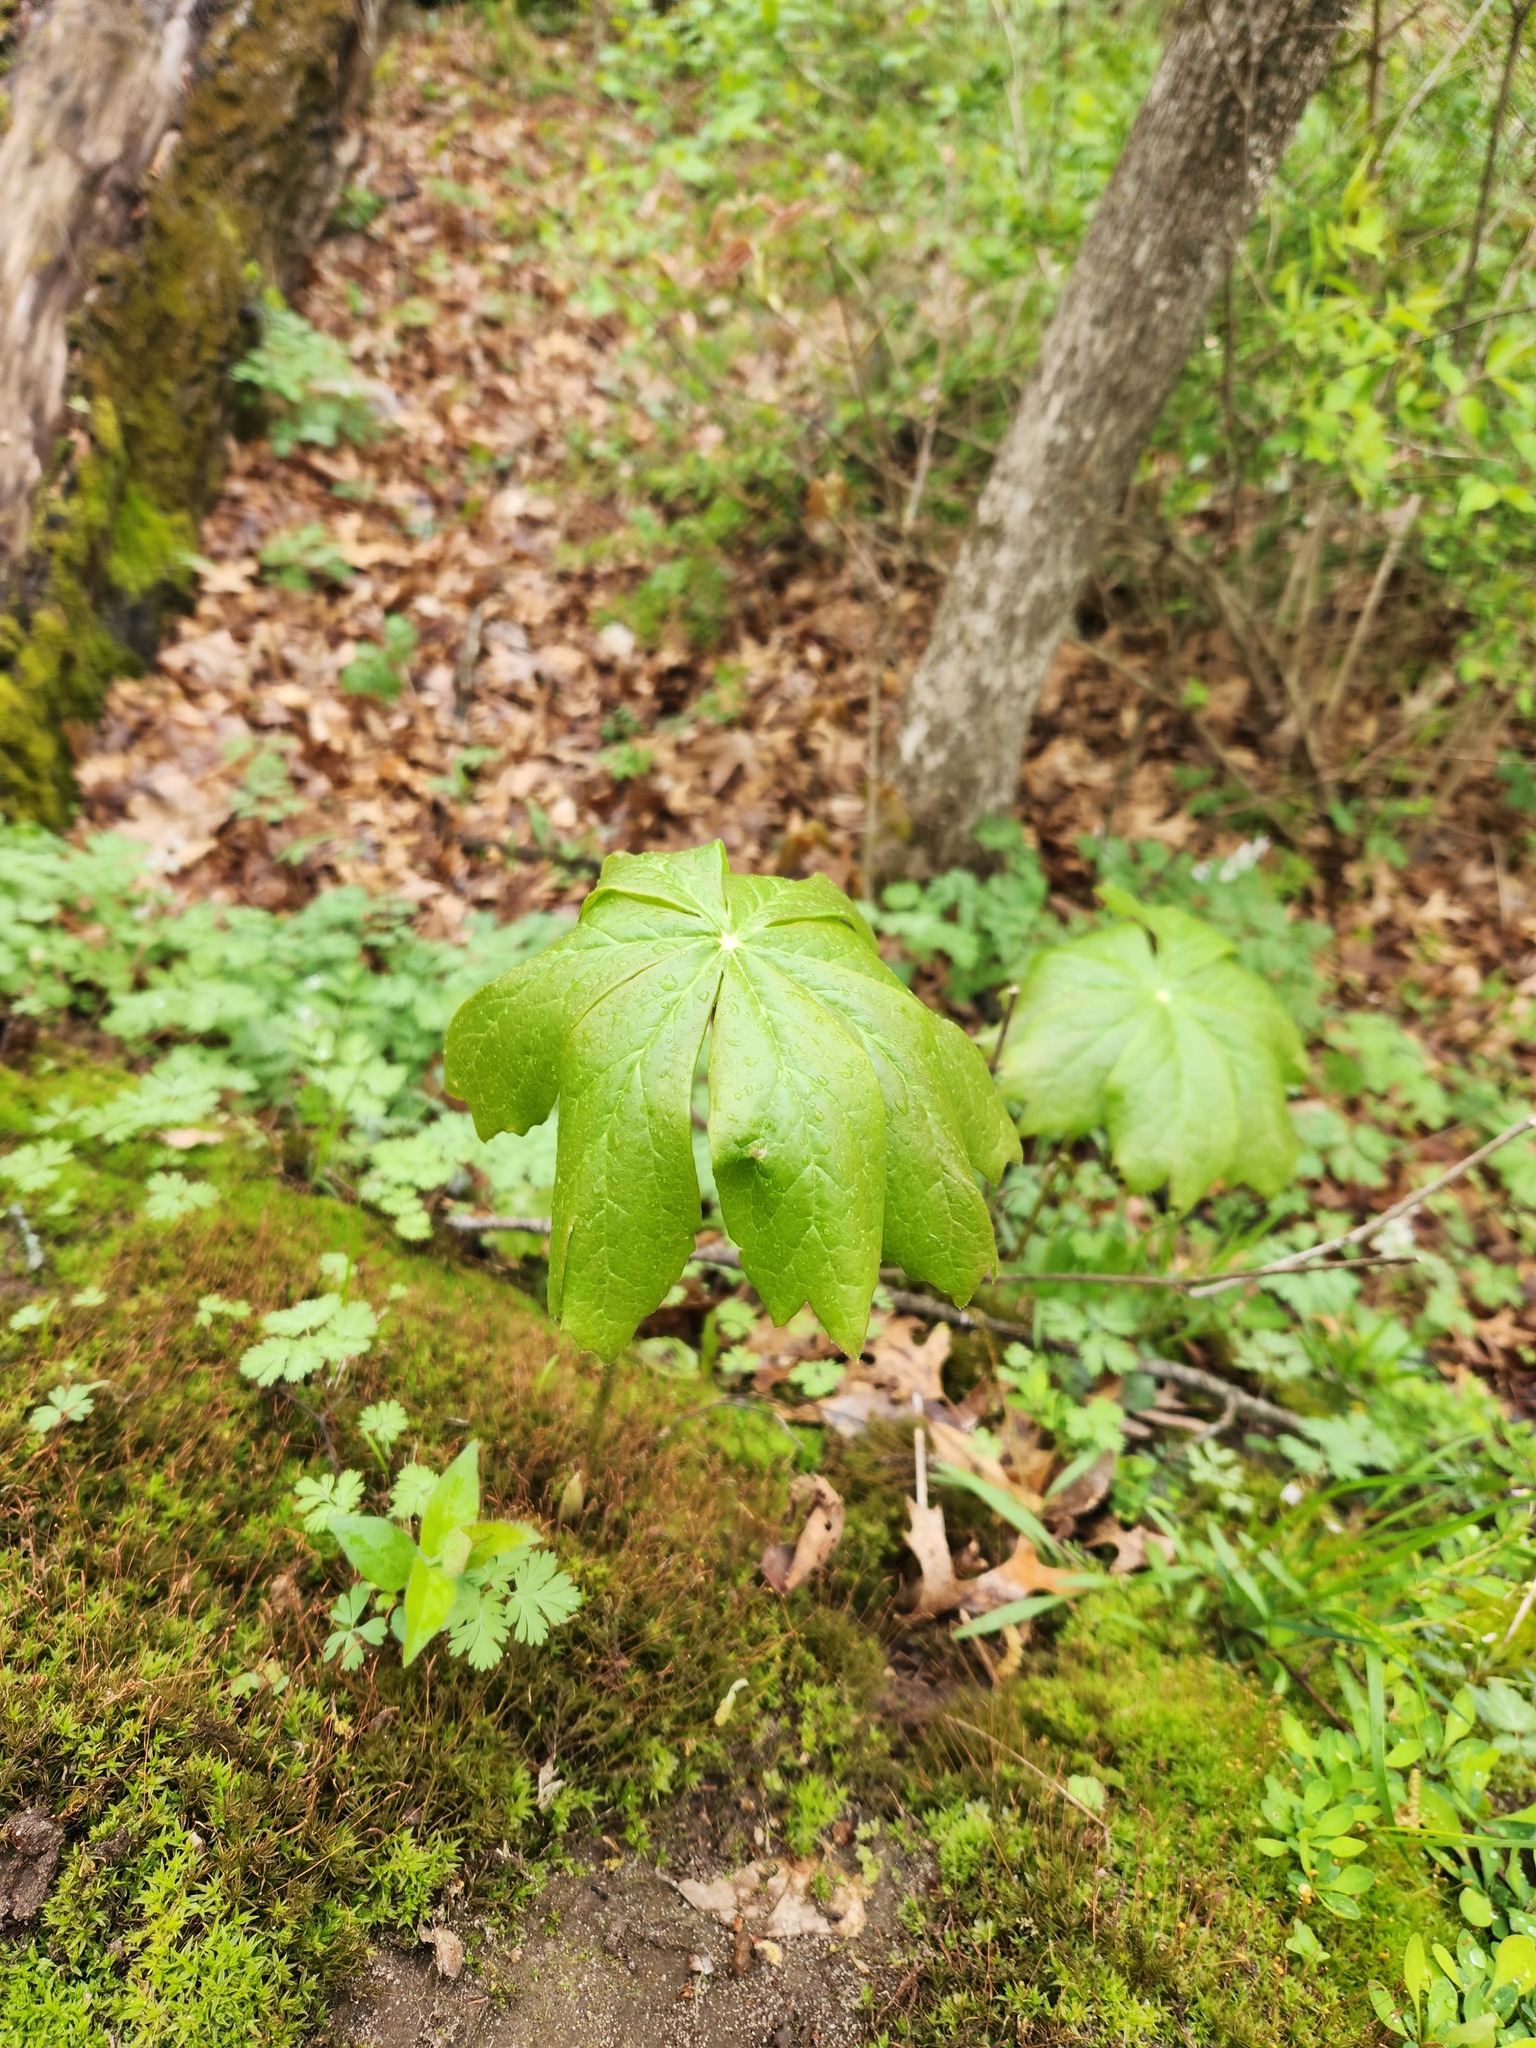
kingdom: Plantae
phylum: Tracheophyta
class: Magnoliopsida
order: Ranunculales
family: Berberidaceae
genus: Podophyllum
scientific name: Podophyllum peltatum
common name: Wild mandrake
